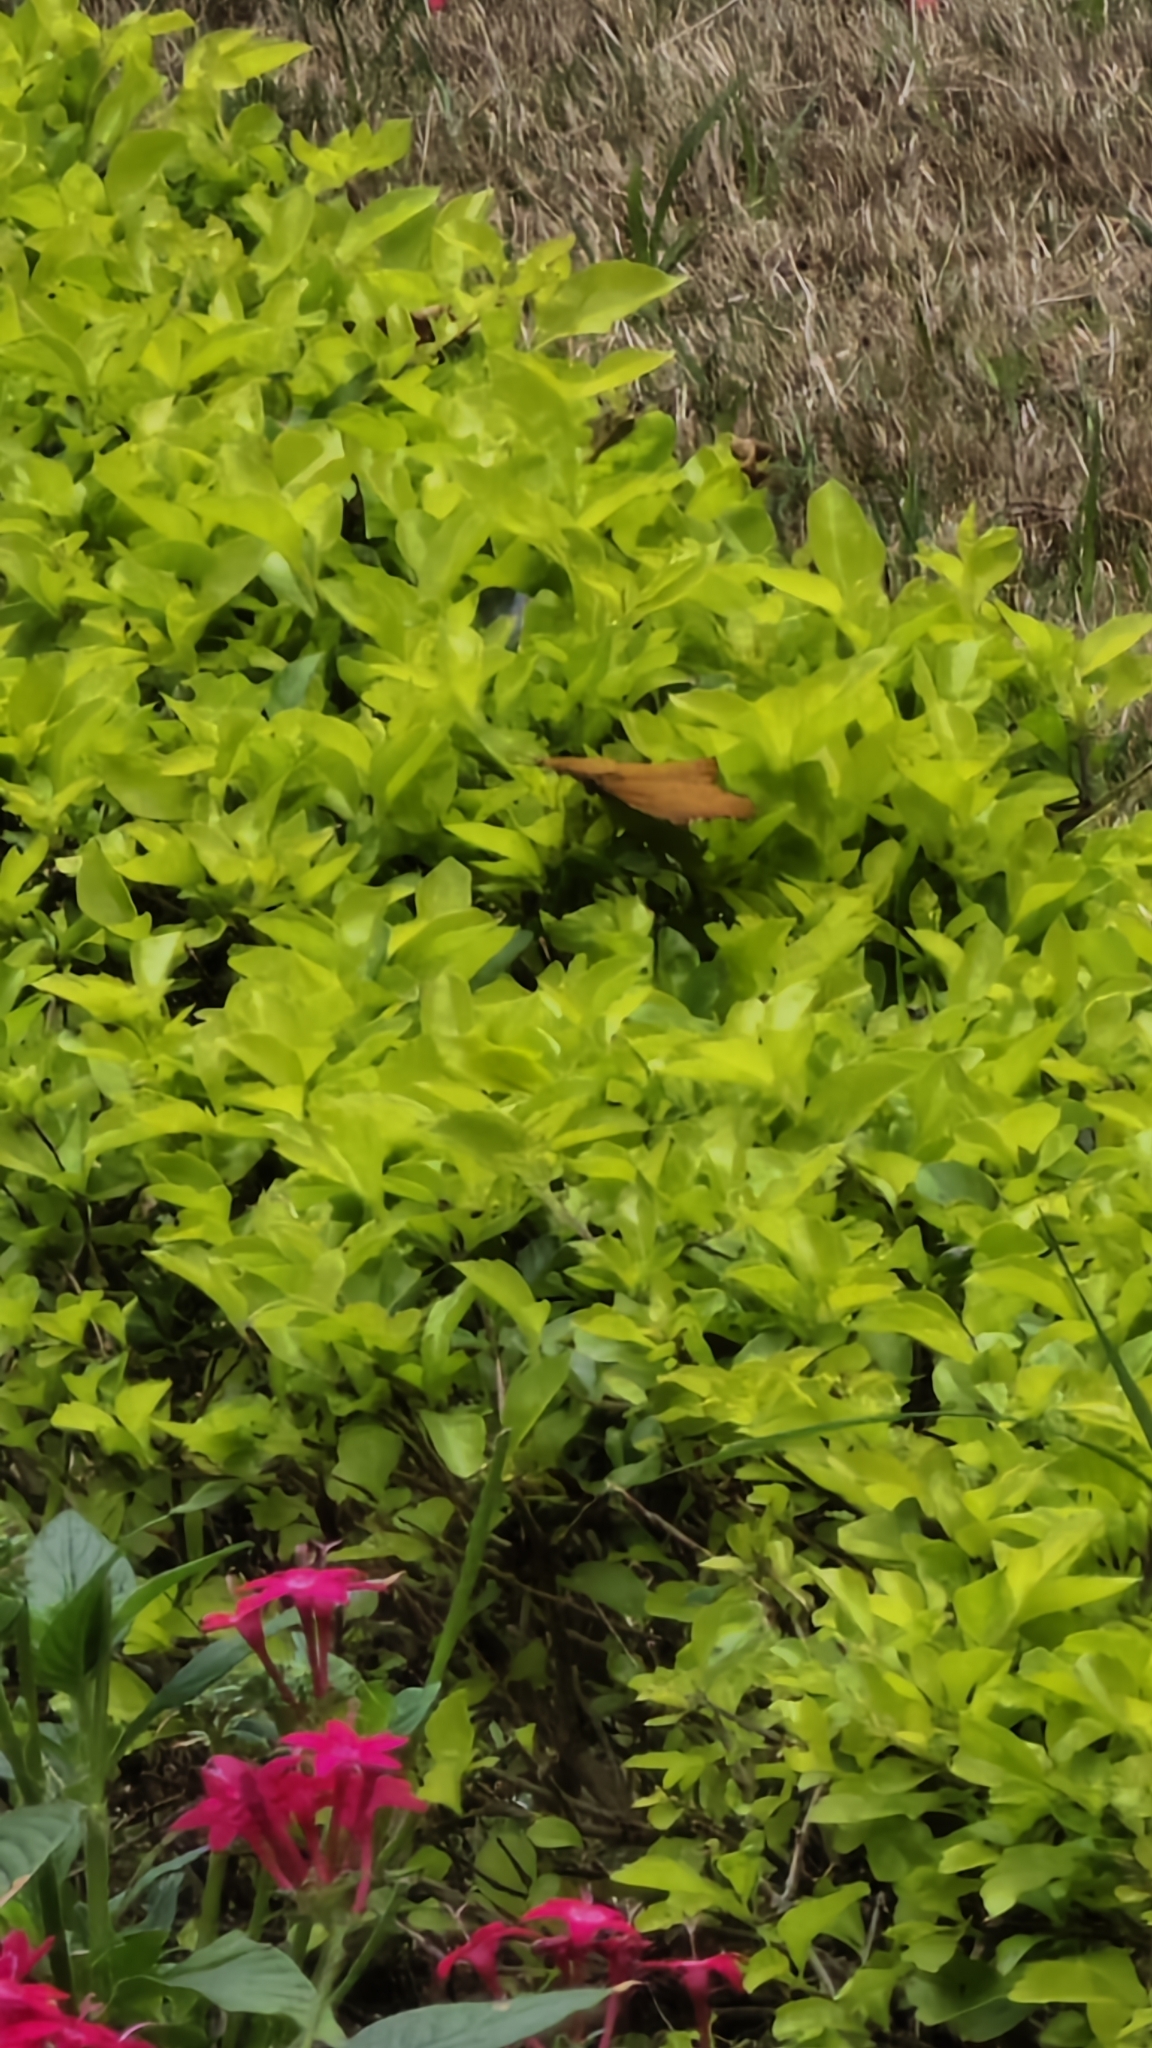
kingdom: Animalia
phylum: Arthropoda
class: Insecta
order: Lepidoptera
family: Nymphalidae
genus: Ariadne
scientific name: Ariadne merione
